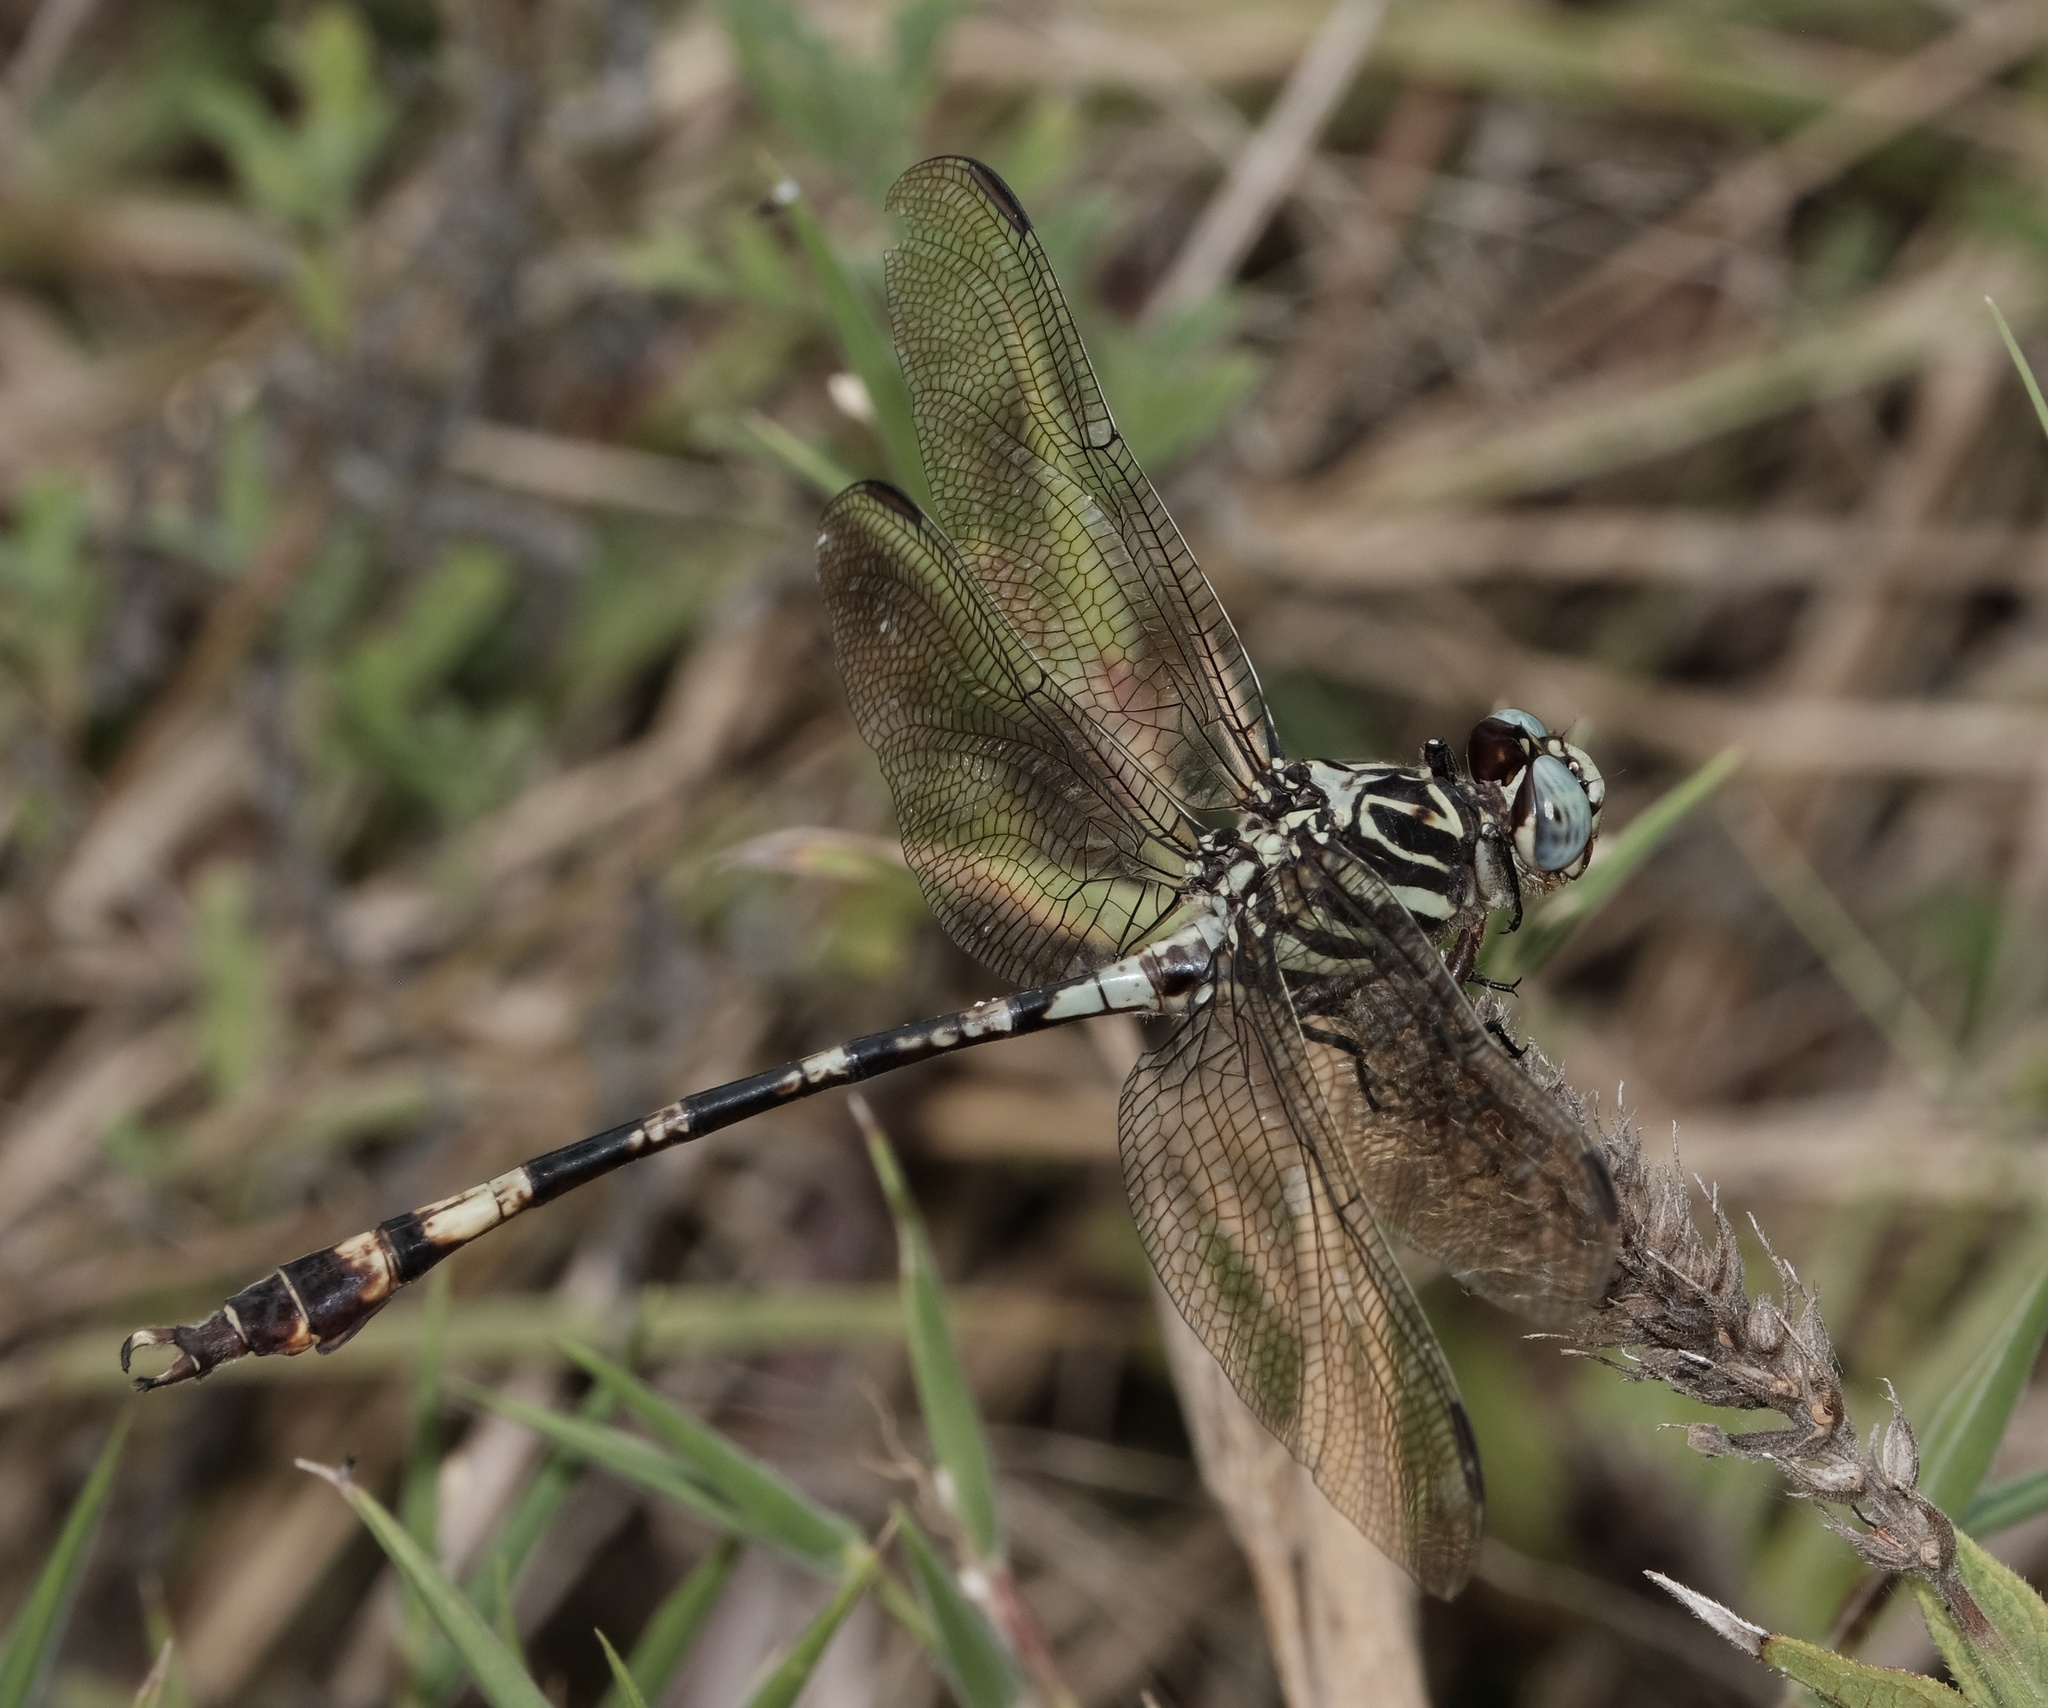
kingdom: Animalia
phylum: Arthropoda
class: Insecta
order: Odonata
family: Gomphidae
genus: Aphylla
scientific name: Aphylla angustifolia
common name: Broad-striped forceptail
